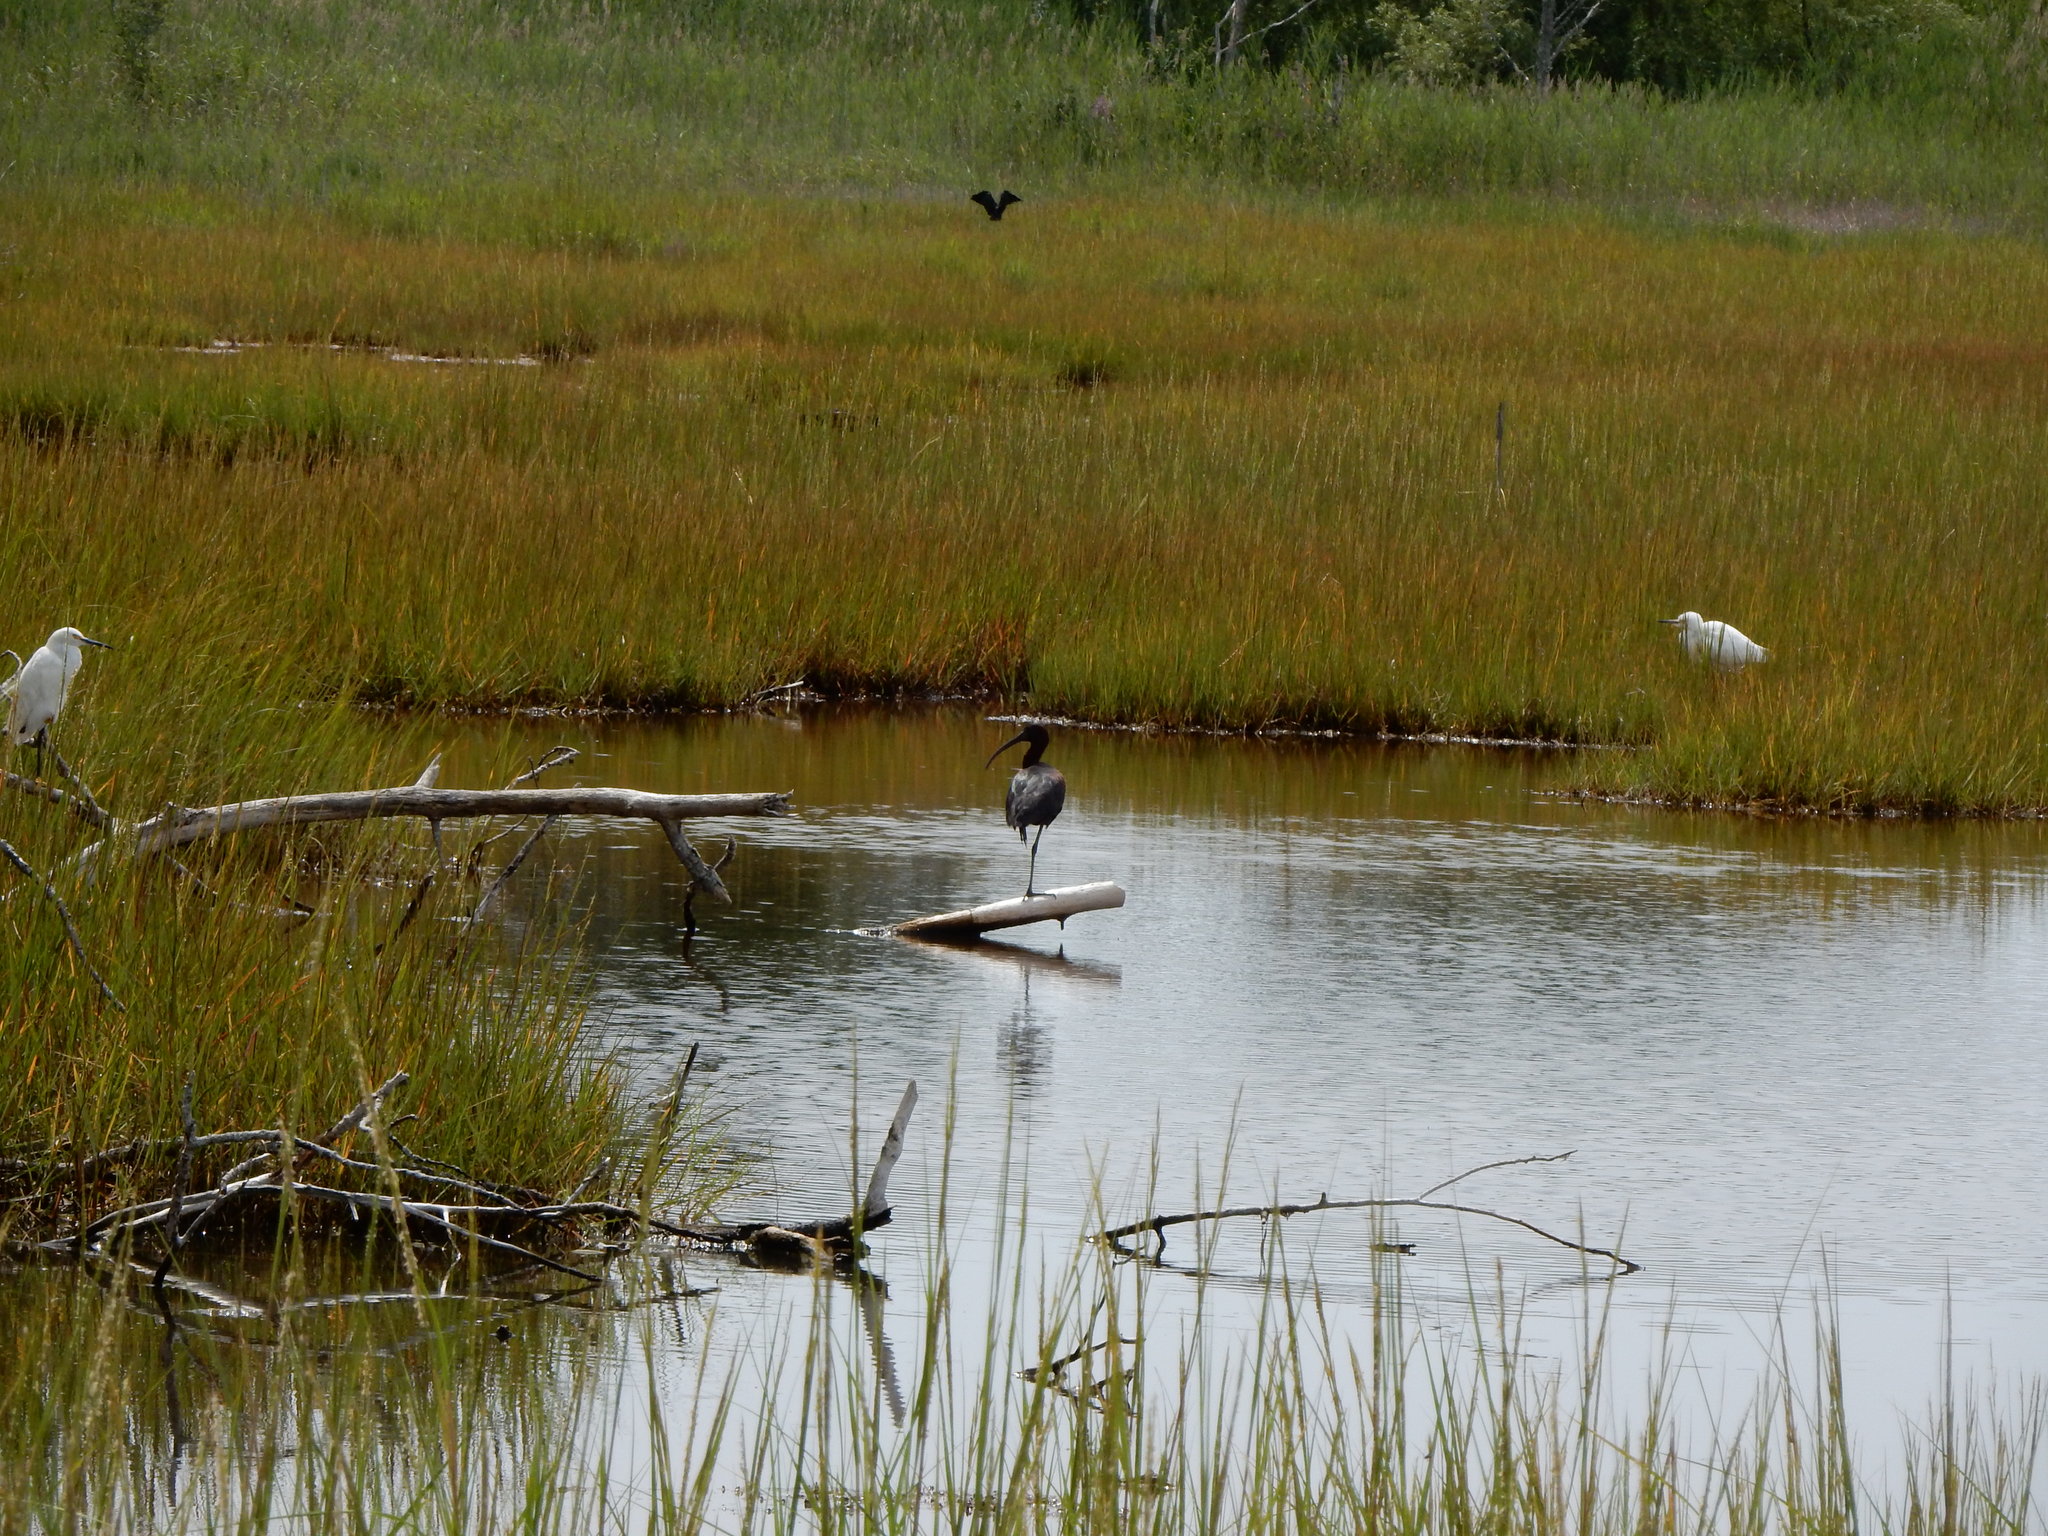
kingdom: Animalia
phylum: Chordata
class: Aves
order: Pelecaniformes
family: Threskiornithidae
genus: Plegadis
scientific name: Plegadis falcinellus
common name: Glossy ibis
